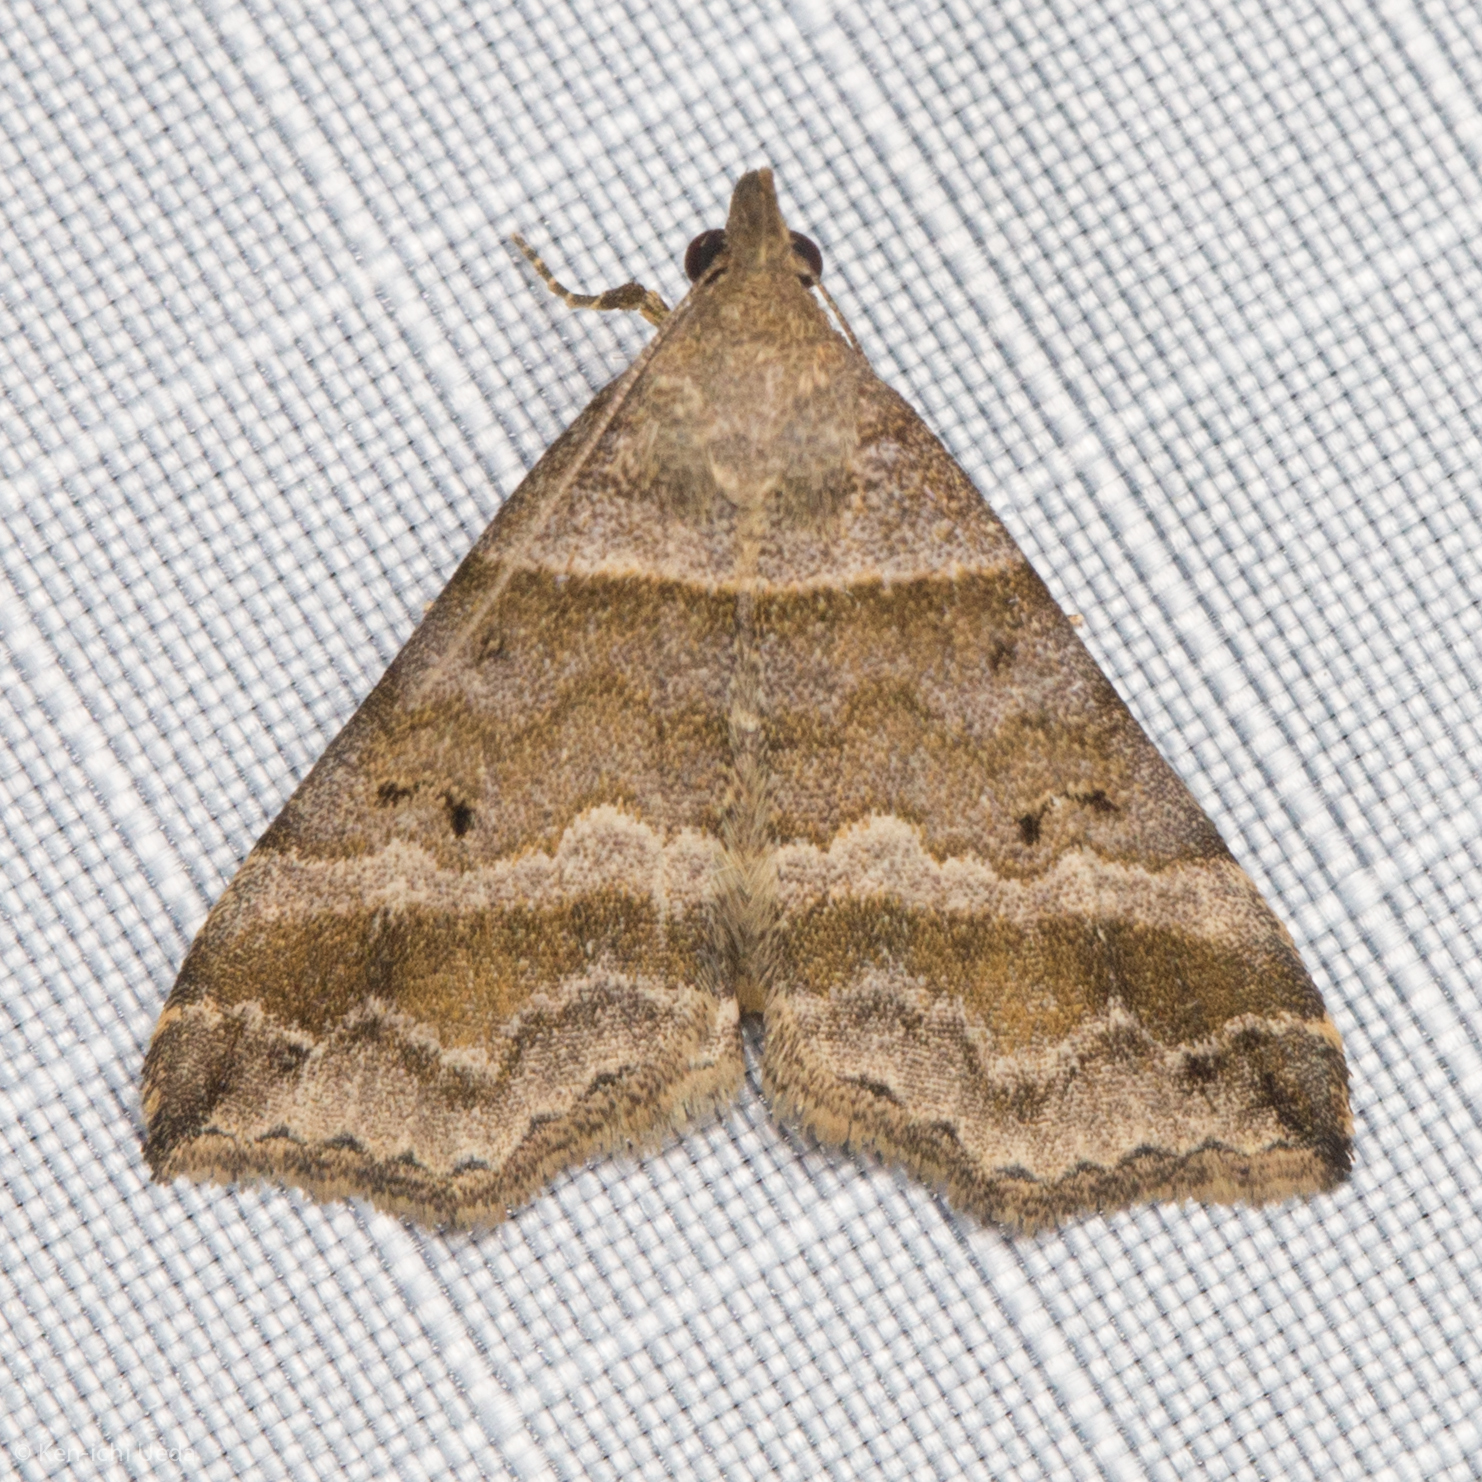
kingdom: Animalia
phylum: Arthropoda
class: Insecta
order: Lepidoptera
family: Erebidae
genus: Phaeolita
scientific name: Phaeolita pyramusalis
